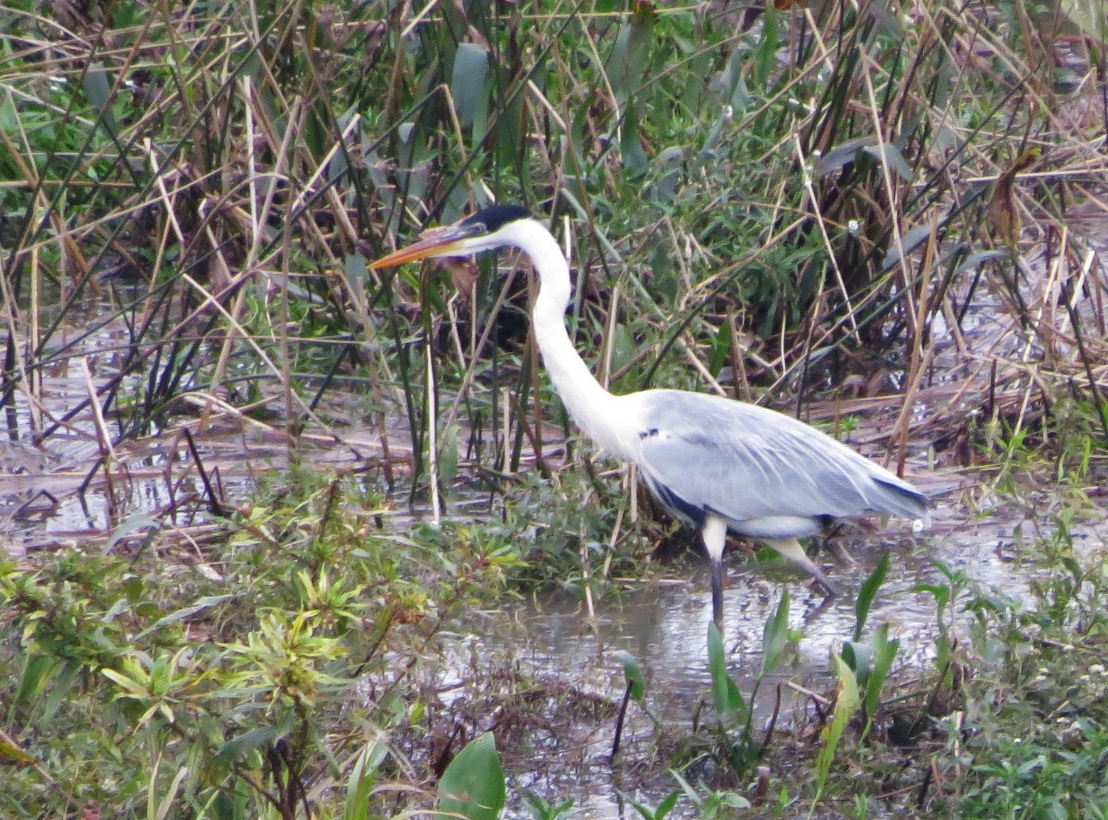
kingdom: Animalia
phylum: Chordata
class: Aves
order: Pelecaniformes
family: Ardeidae
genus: Ardea
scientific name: Ardea cocoi
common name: Cocoi heron
